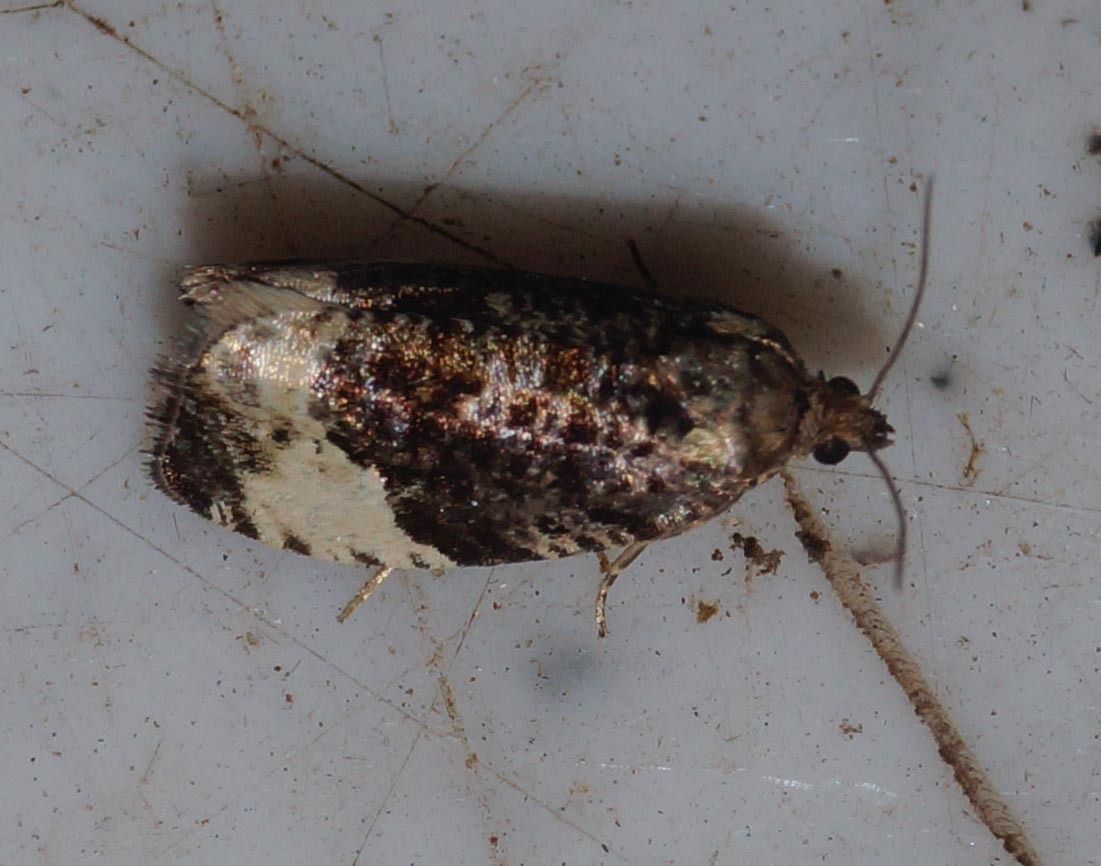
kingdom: Animalia
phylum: Arthropoda
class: Insecta
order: Lepidoptera
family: Tortricidae
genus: Hedya
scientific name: Hedya pruniana
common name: Plum tortrix
